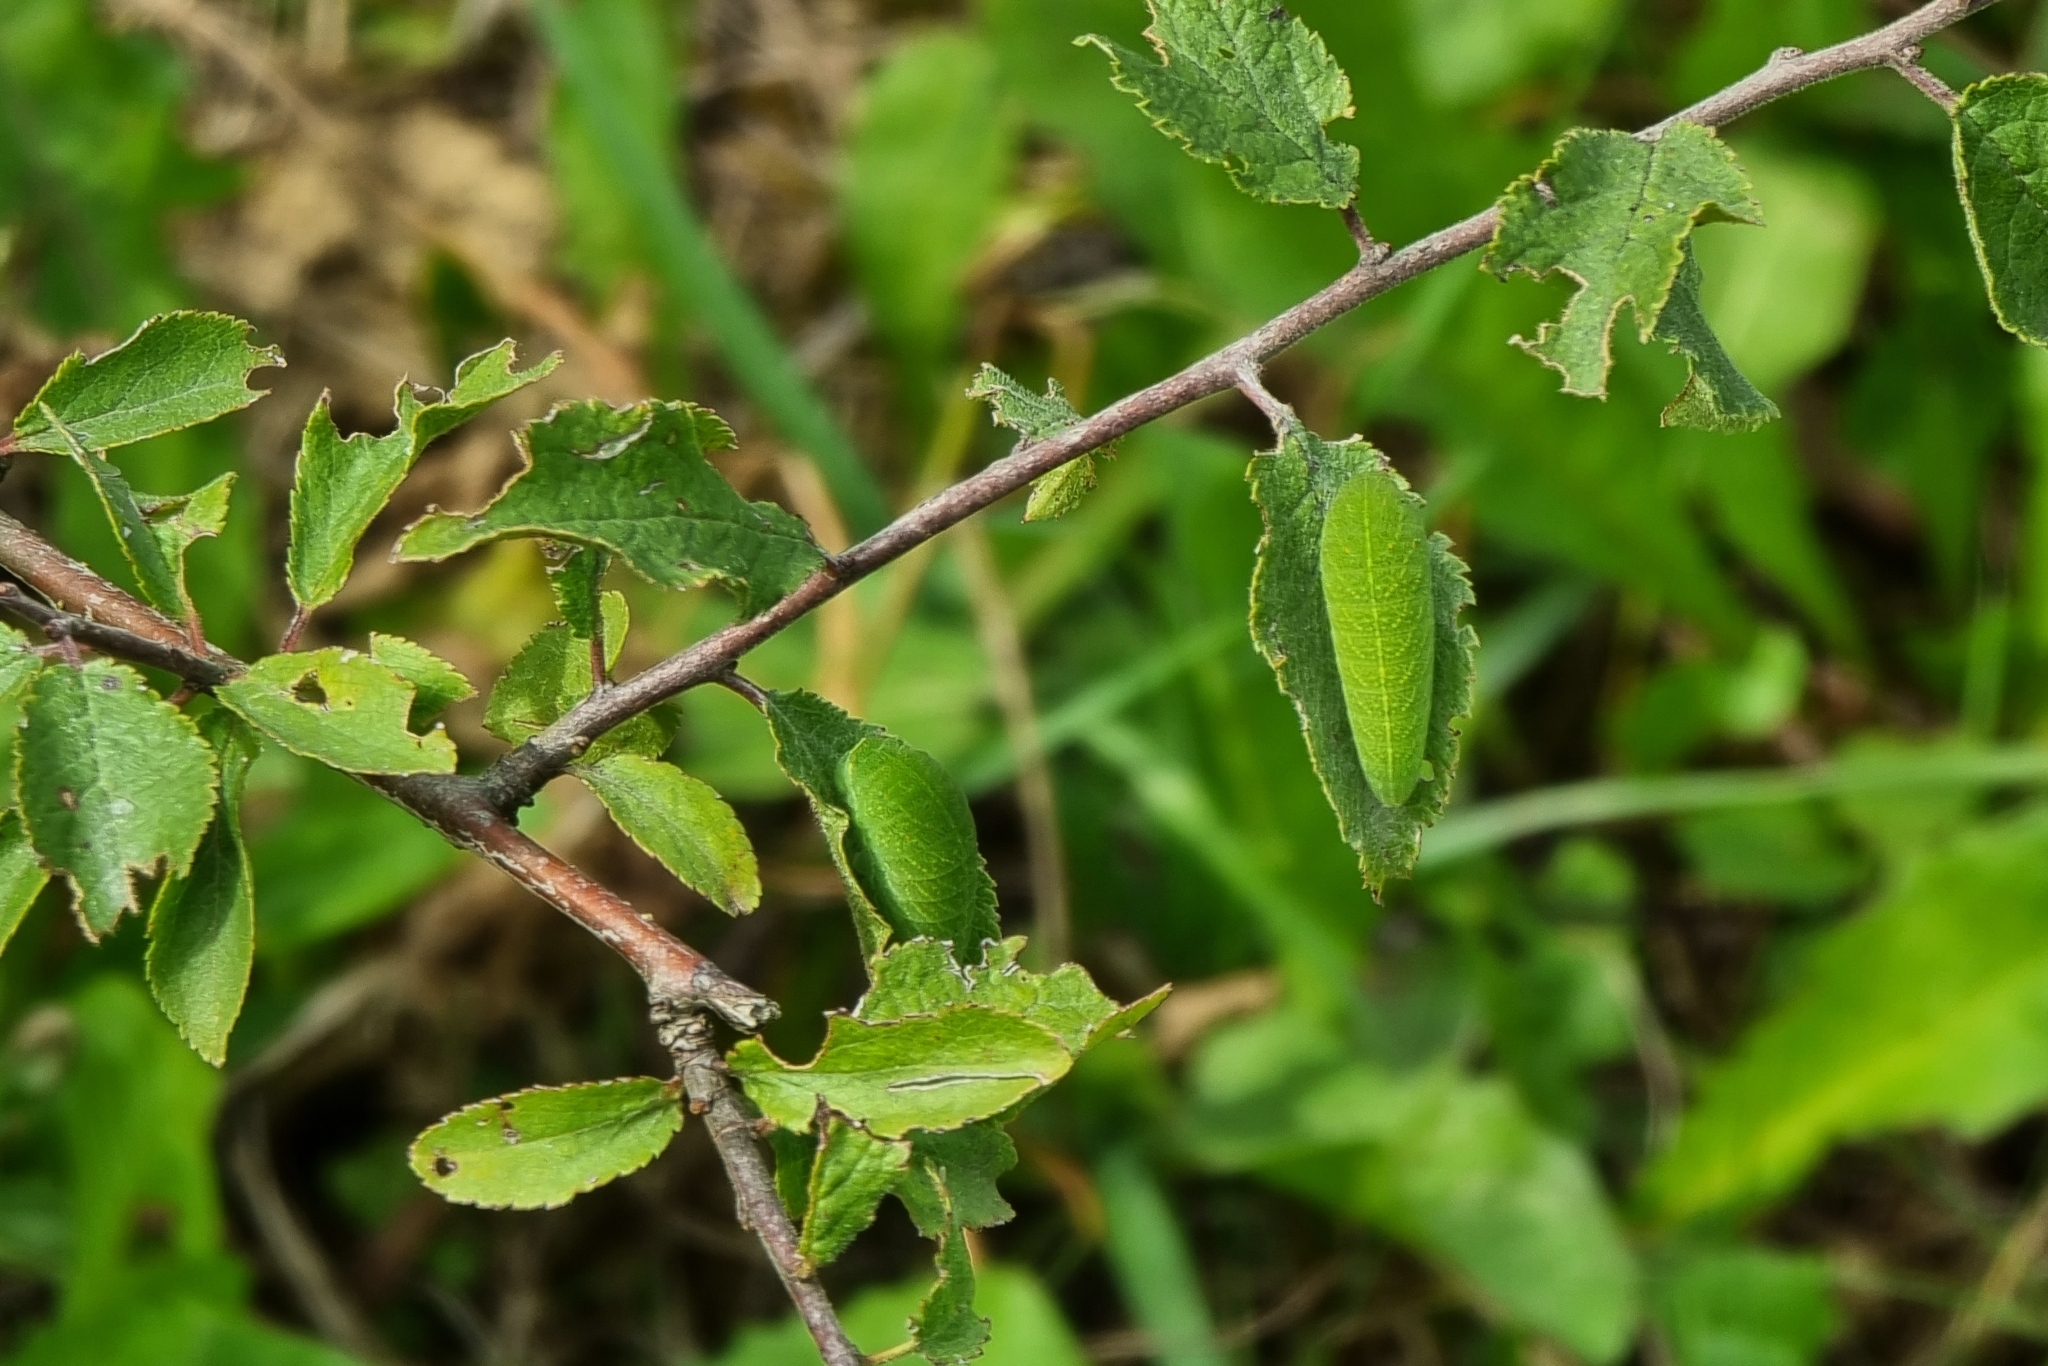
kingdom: Animalia
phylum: Arthropoda
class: Insecta
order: Lepidoptera
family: Papilionidae
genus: Iphiclides
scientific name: Iphiclides podalirius
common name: Scarce swallowtail
